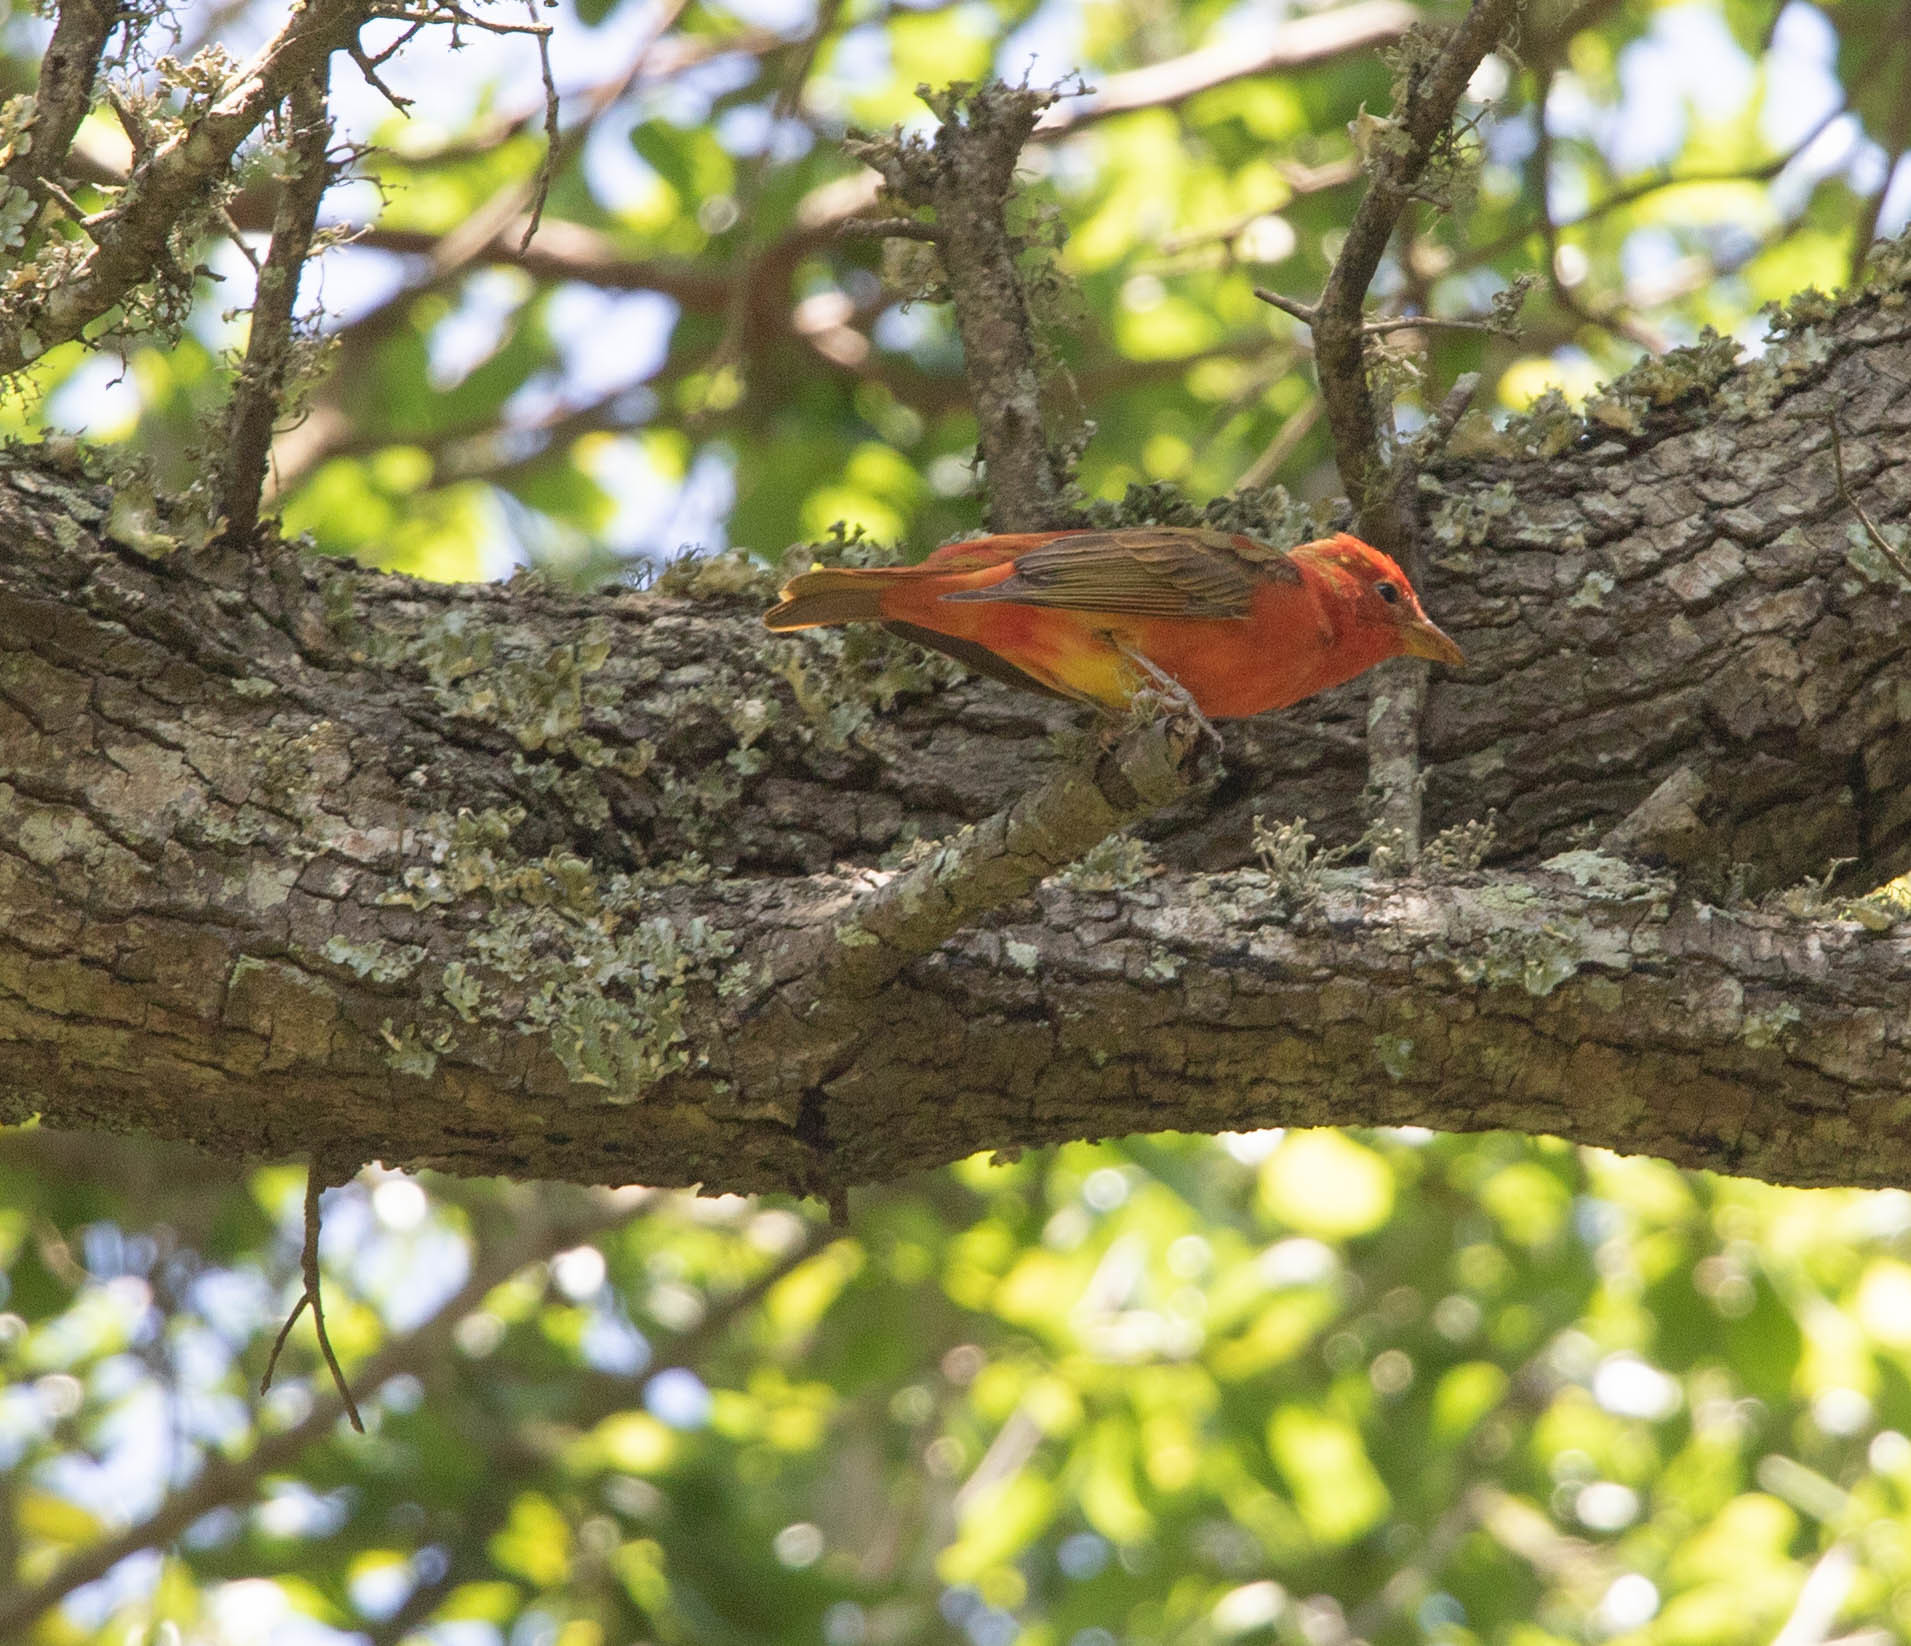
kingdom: Animalia
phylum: Chordata
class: Aves
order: Passeriformes
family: Cardinalidae
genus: Piranga
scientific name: Piranga rubra
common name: Summer tanager
